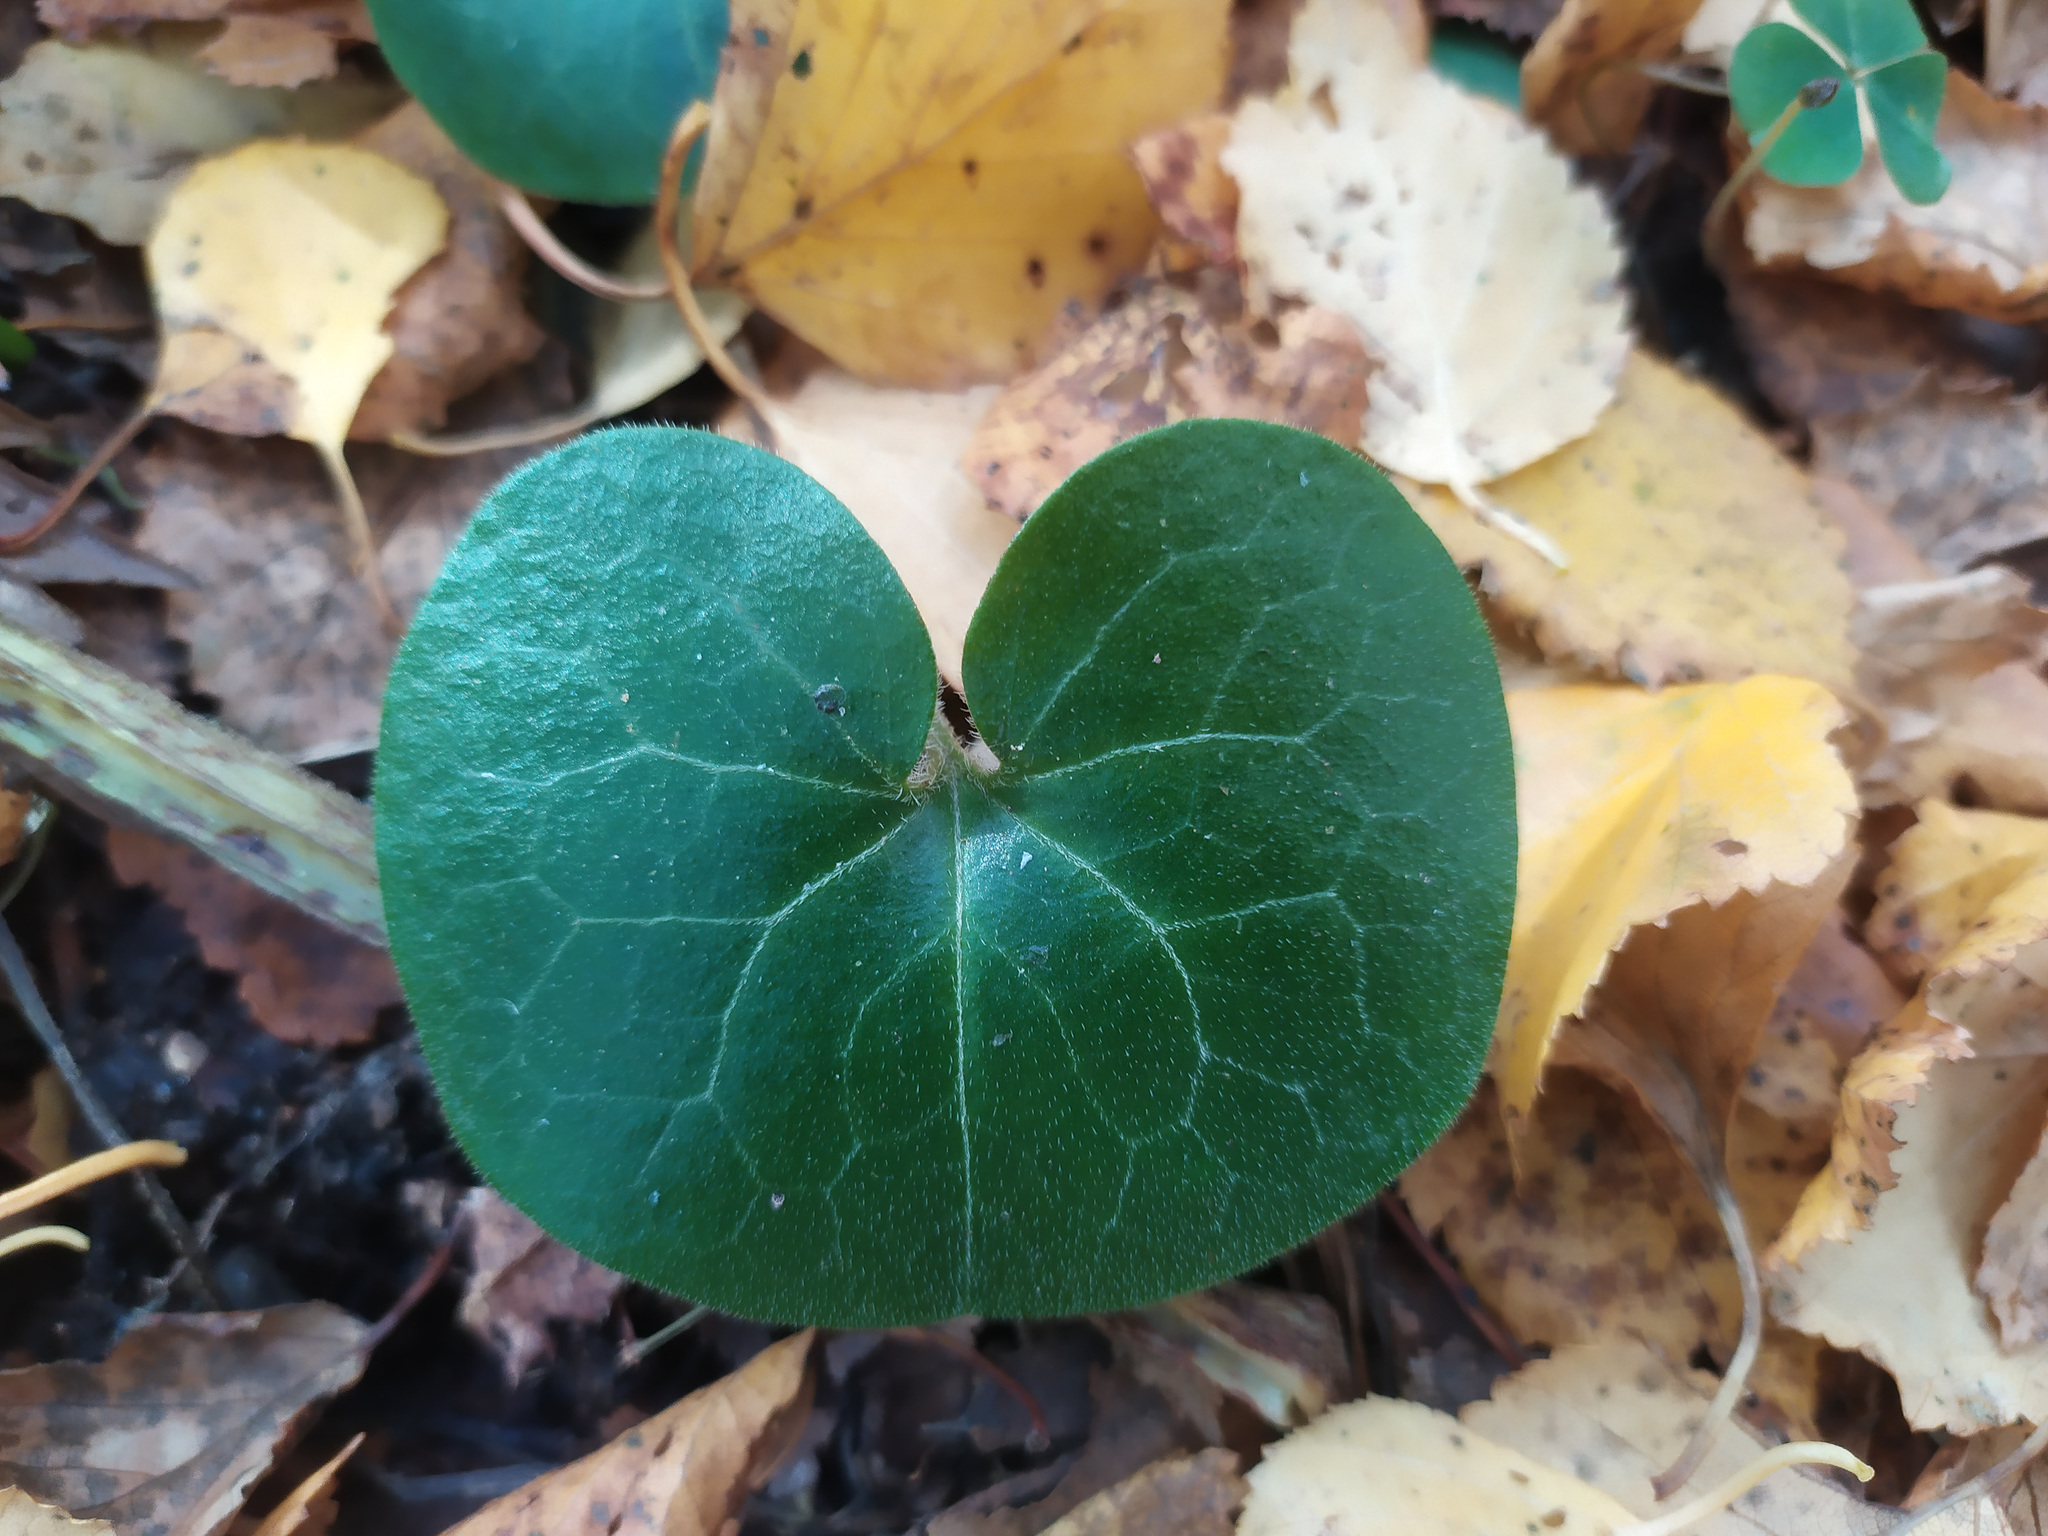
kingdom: Plantae
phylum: Tracheophyta
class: Magnoliopsida
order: Piperales
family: Aristolochiaceae
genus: Asarum
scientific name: Asarum europaeum
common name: Asarabacca
